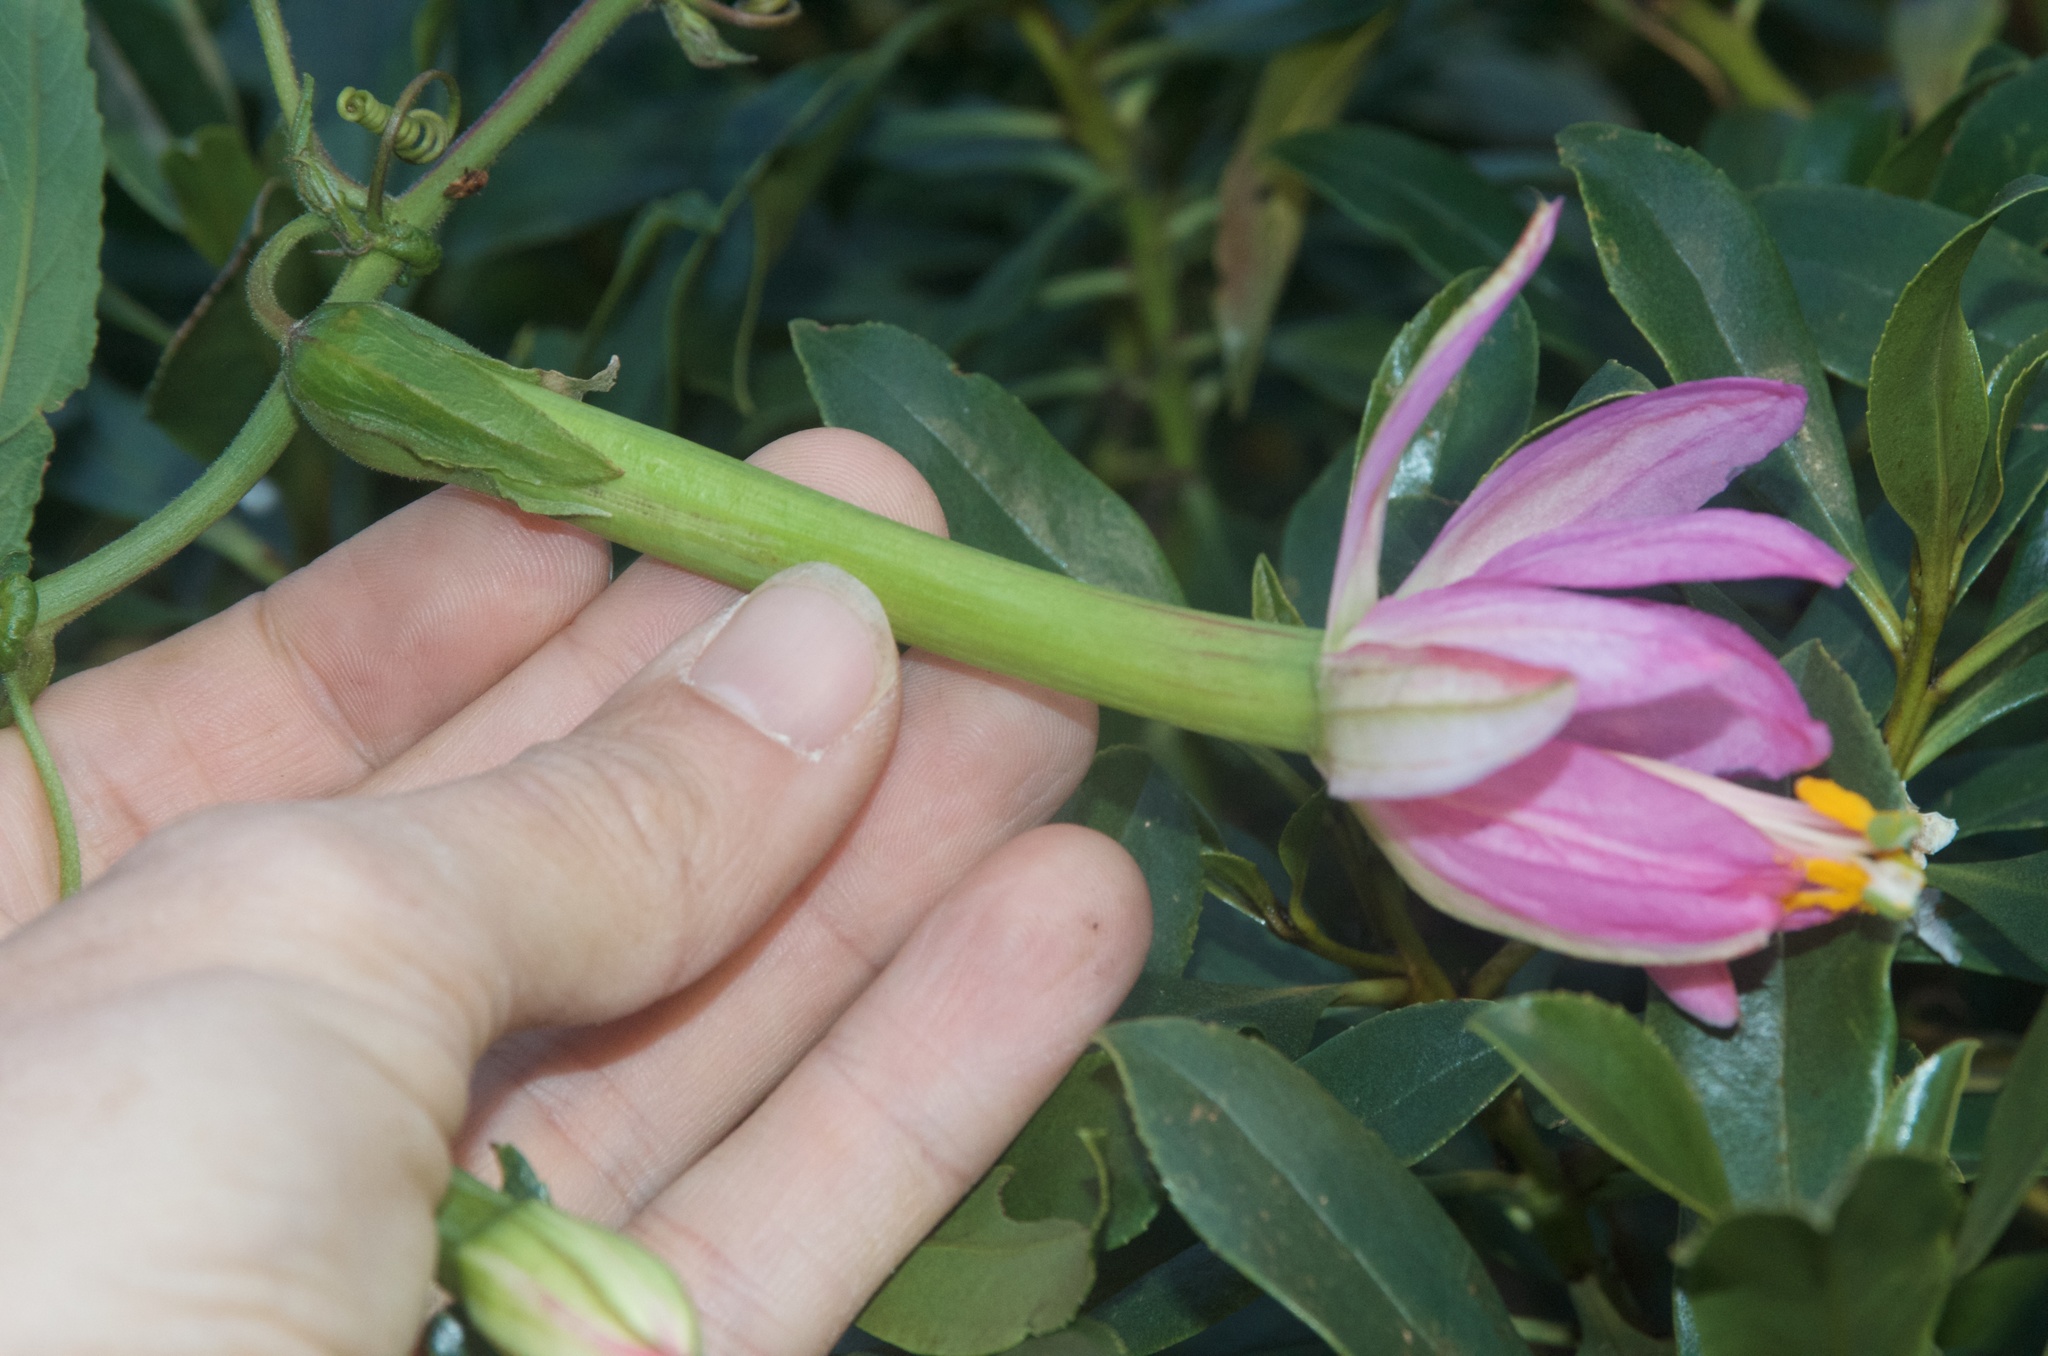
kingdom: Plantae
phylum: Tracheophyta
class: Magnoliopsida
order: Malpighiales
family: Passifloraceae
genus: Passiflora
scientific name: Passiflora tripartita
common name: Banana poka
